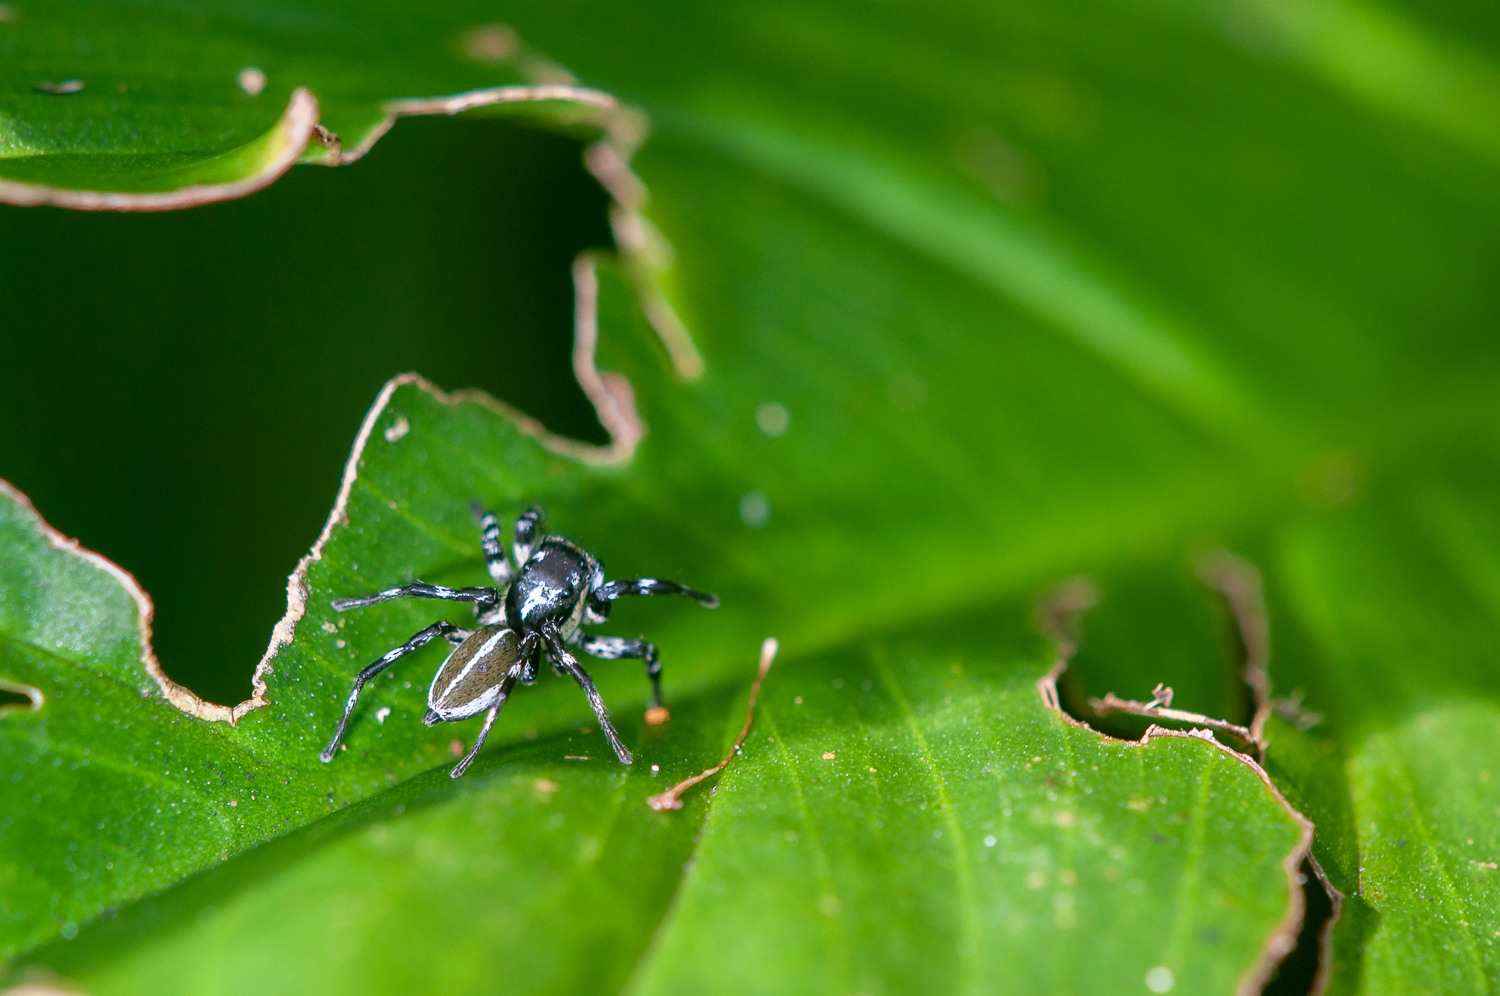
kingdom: Animalia
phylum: Arthropoda
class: Arachnida
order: Araneae
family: Salticidae
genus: Phiale
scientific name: Phiale tristis
